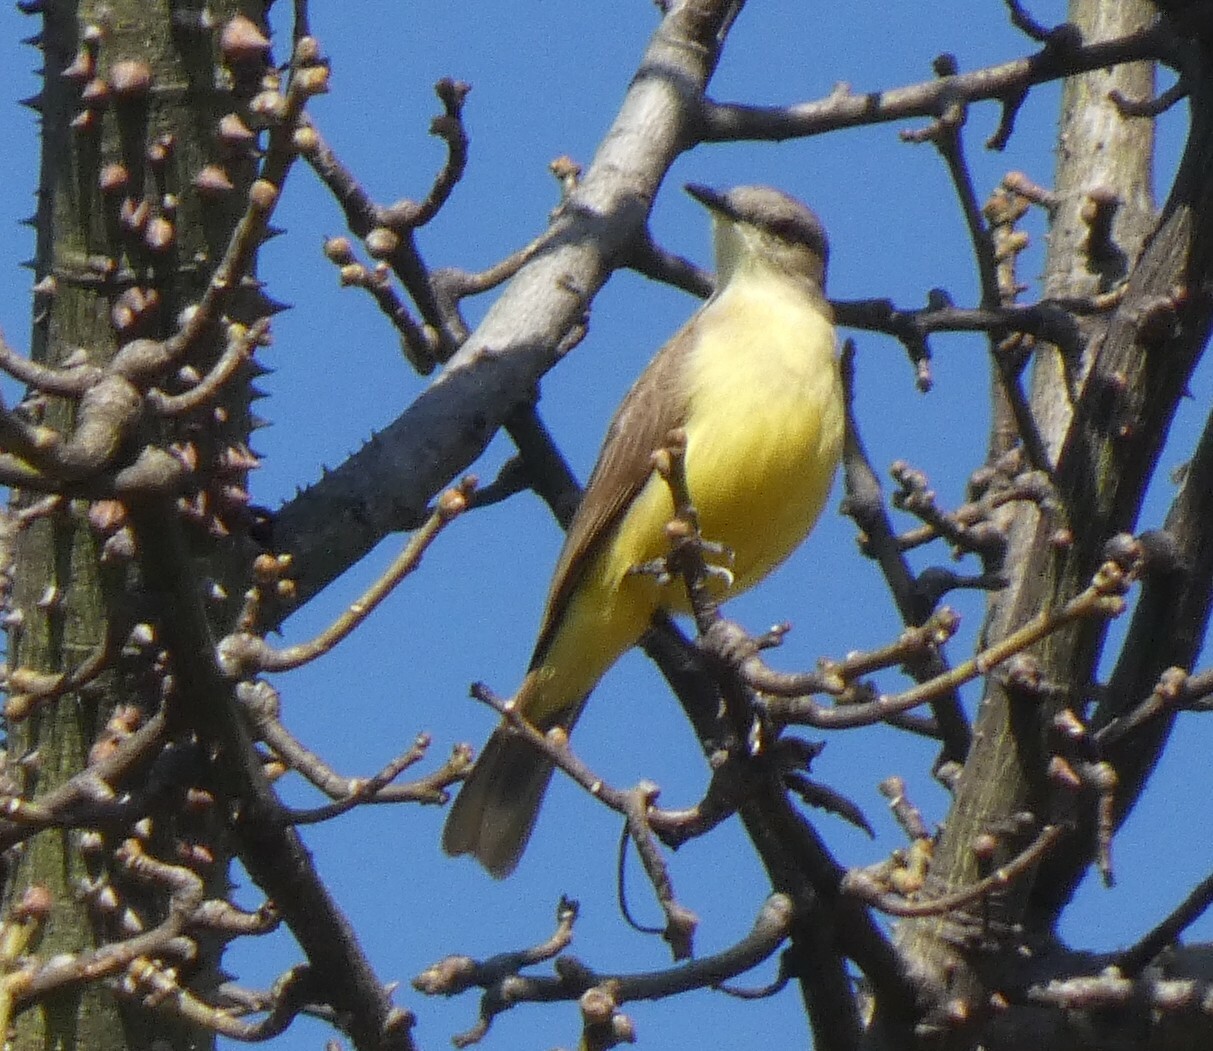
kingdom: Animalia
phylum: Chordata
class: Aves
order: Passeriformes
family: Tyrannidae
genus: Machetornis
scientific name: Machetornis rixosa
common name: Cattle tyrant
